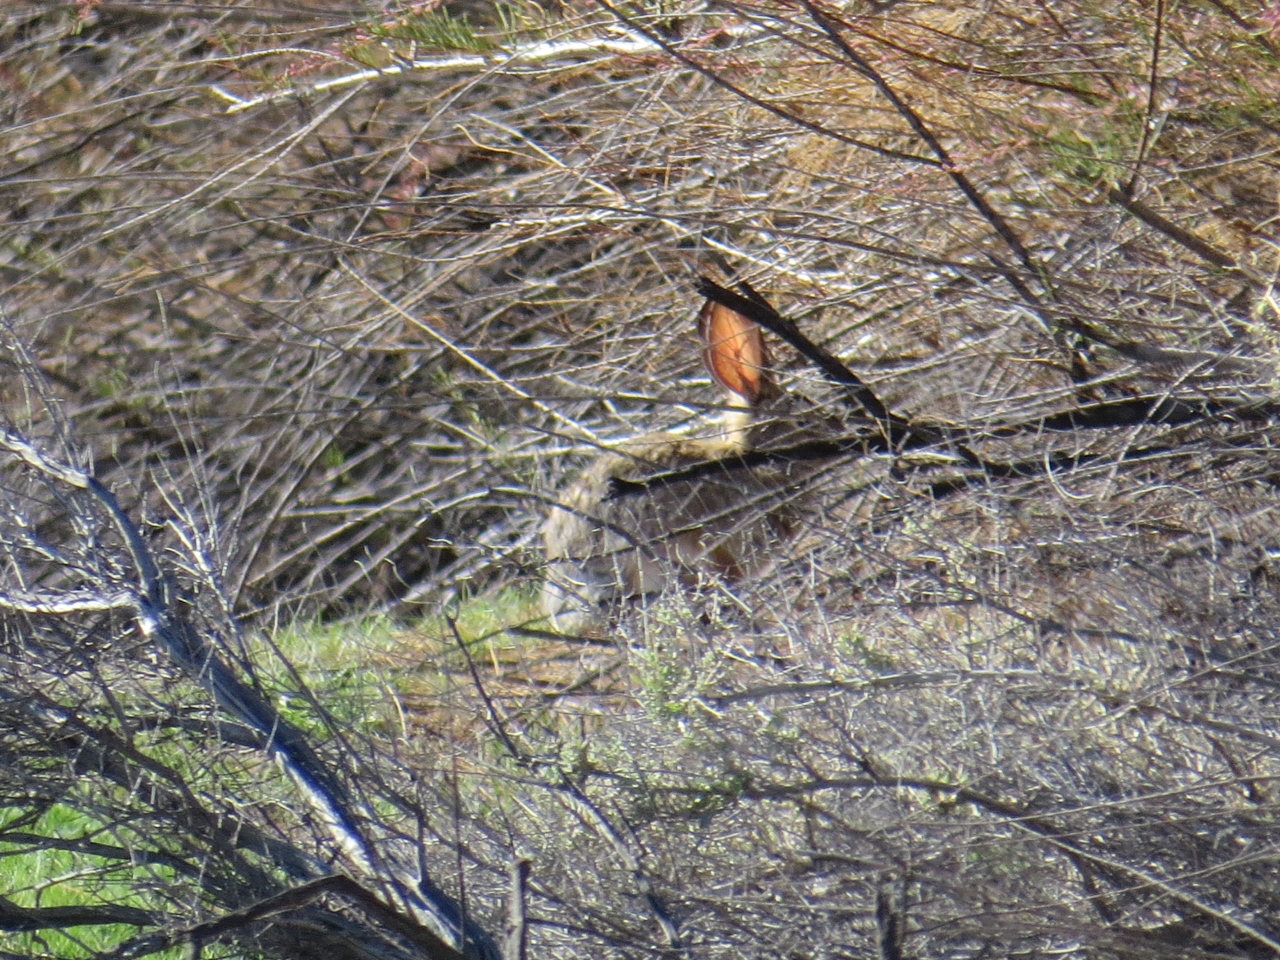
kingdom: Animalia
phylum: Chordata
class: Mammalia
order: Lagomorpha
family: Leporidae
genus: Sylvilagus
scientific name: Sylvilagus audubonii
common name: Desert cottontail
